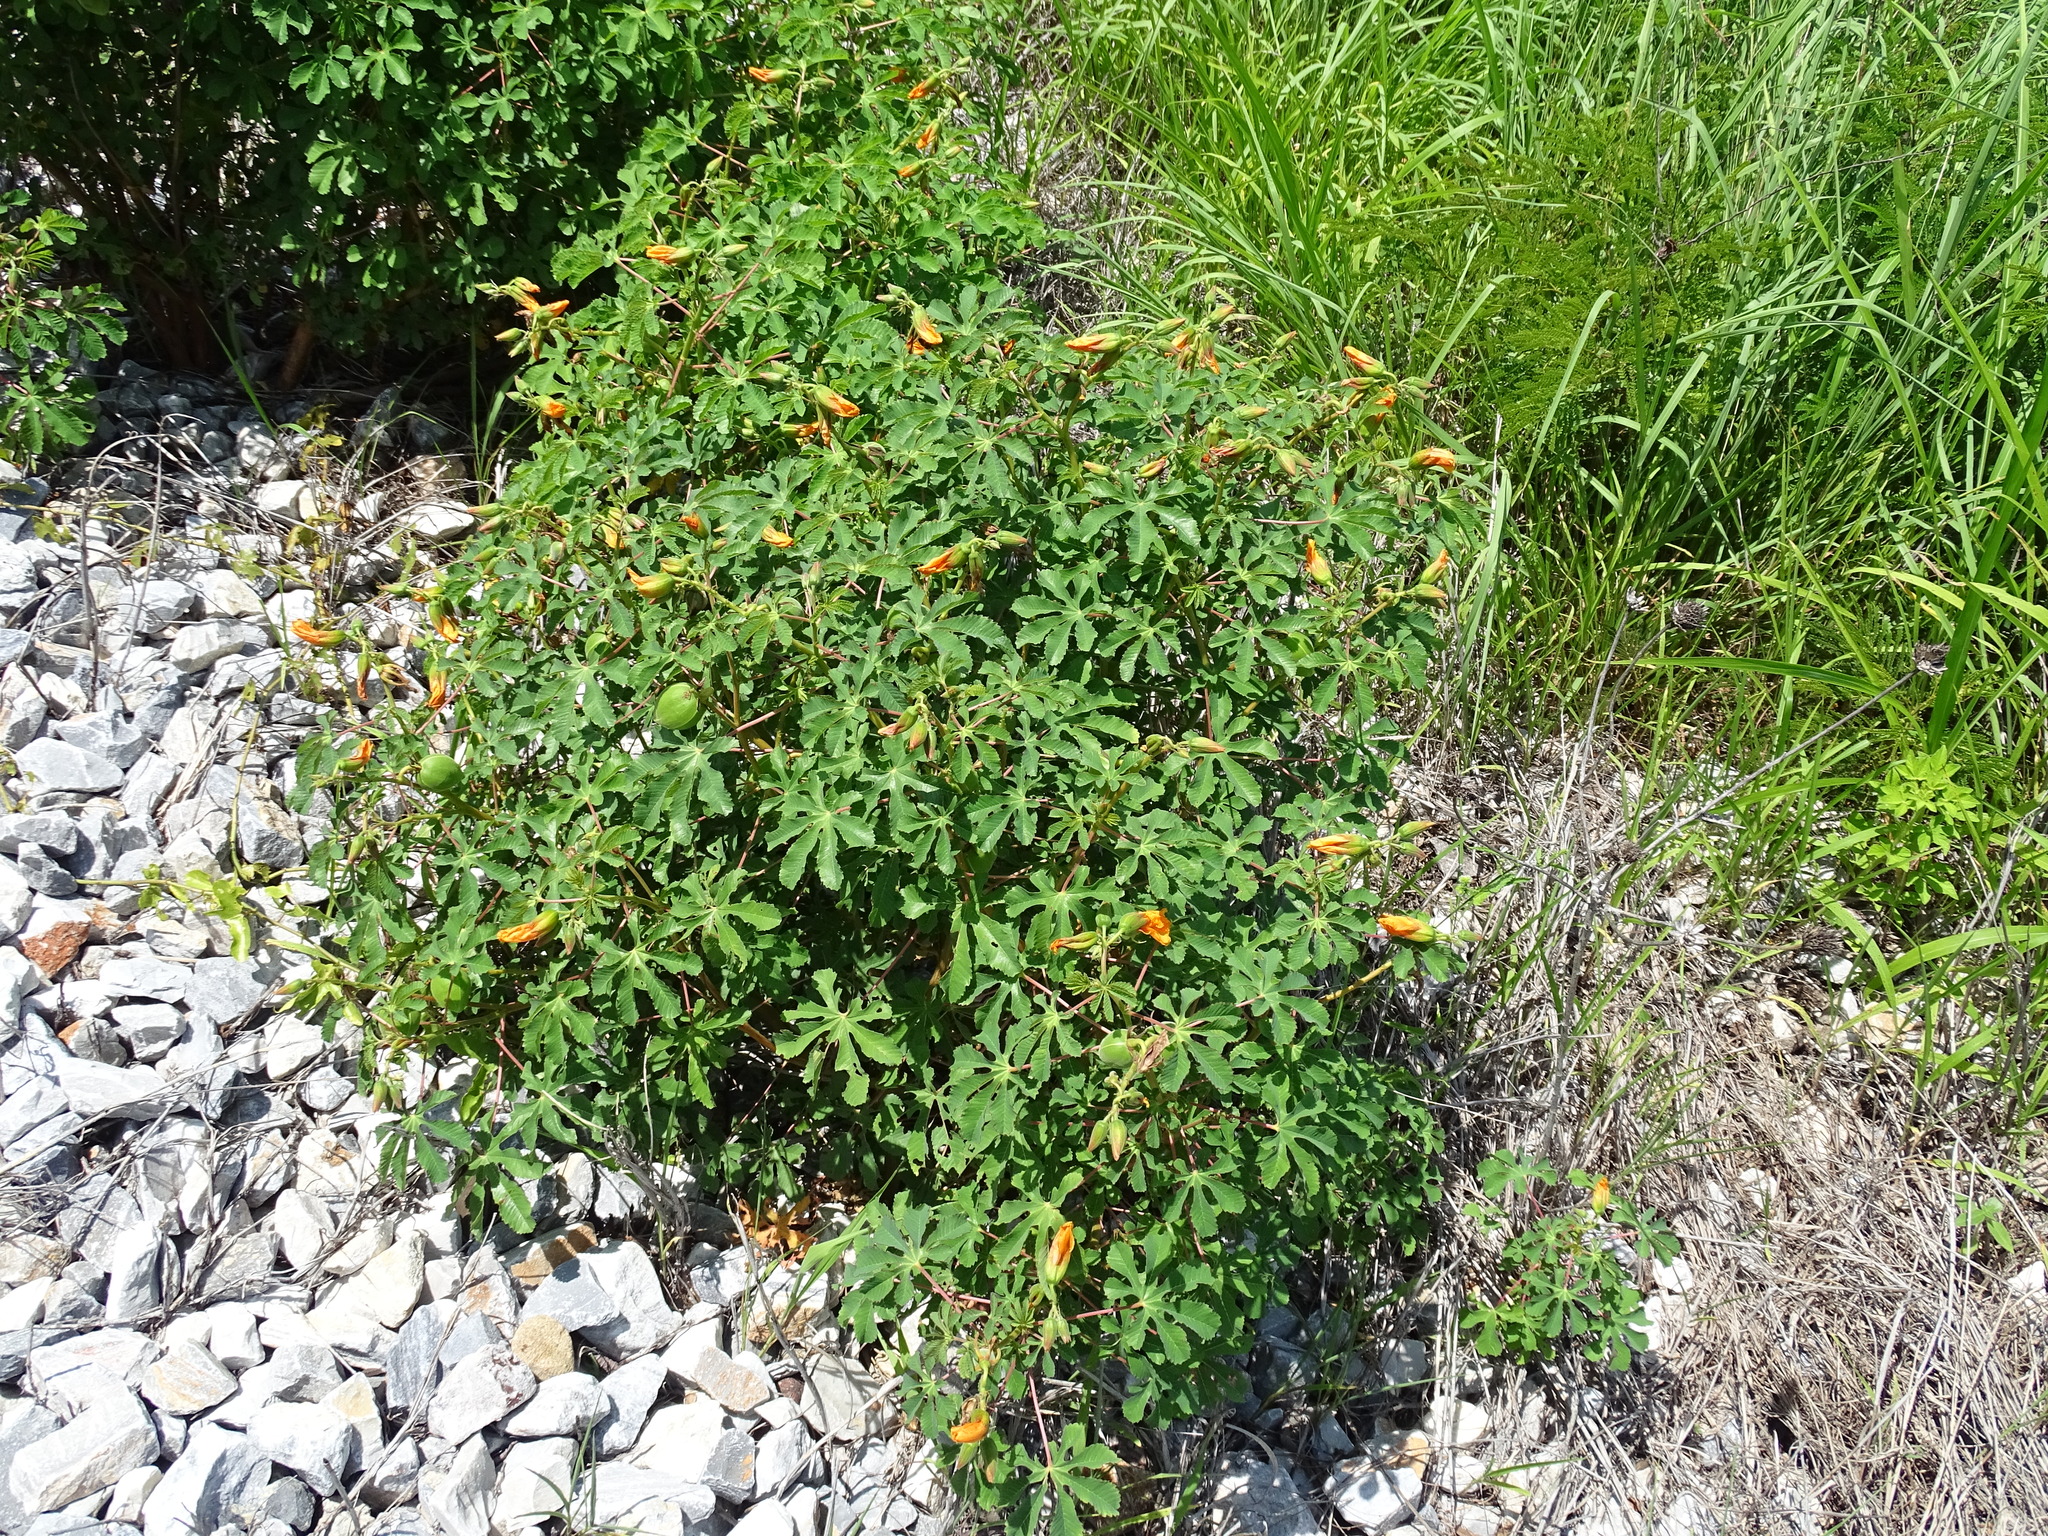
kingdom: Plantae
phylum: Tracheophyta
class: Magnoliopsida
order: Malvales
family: Cochlospermaceae
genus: Cochlospermum
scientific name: Cochlospermum wrightii
